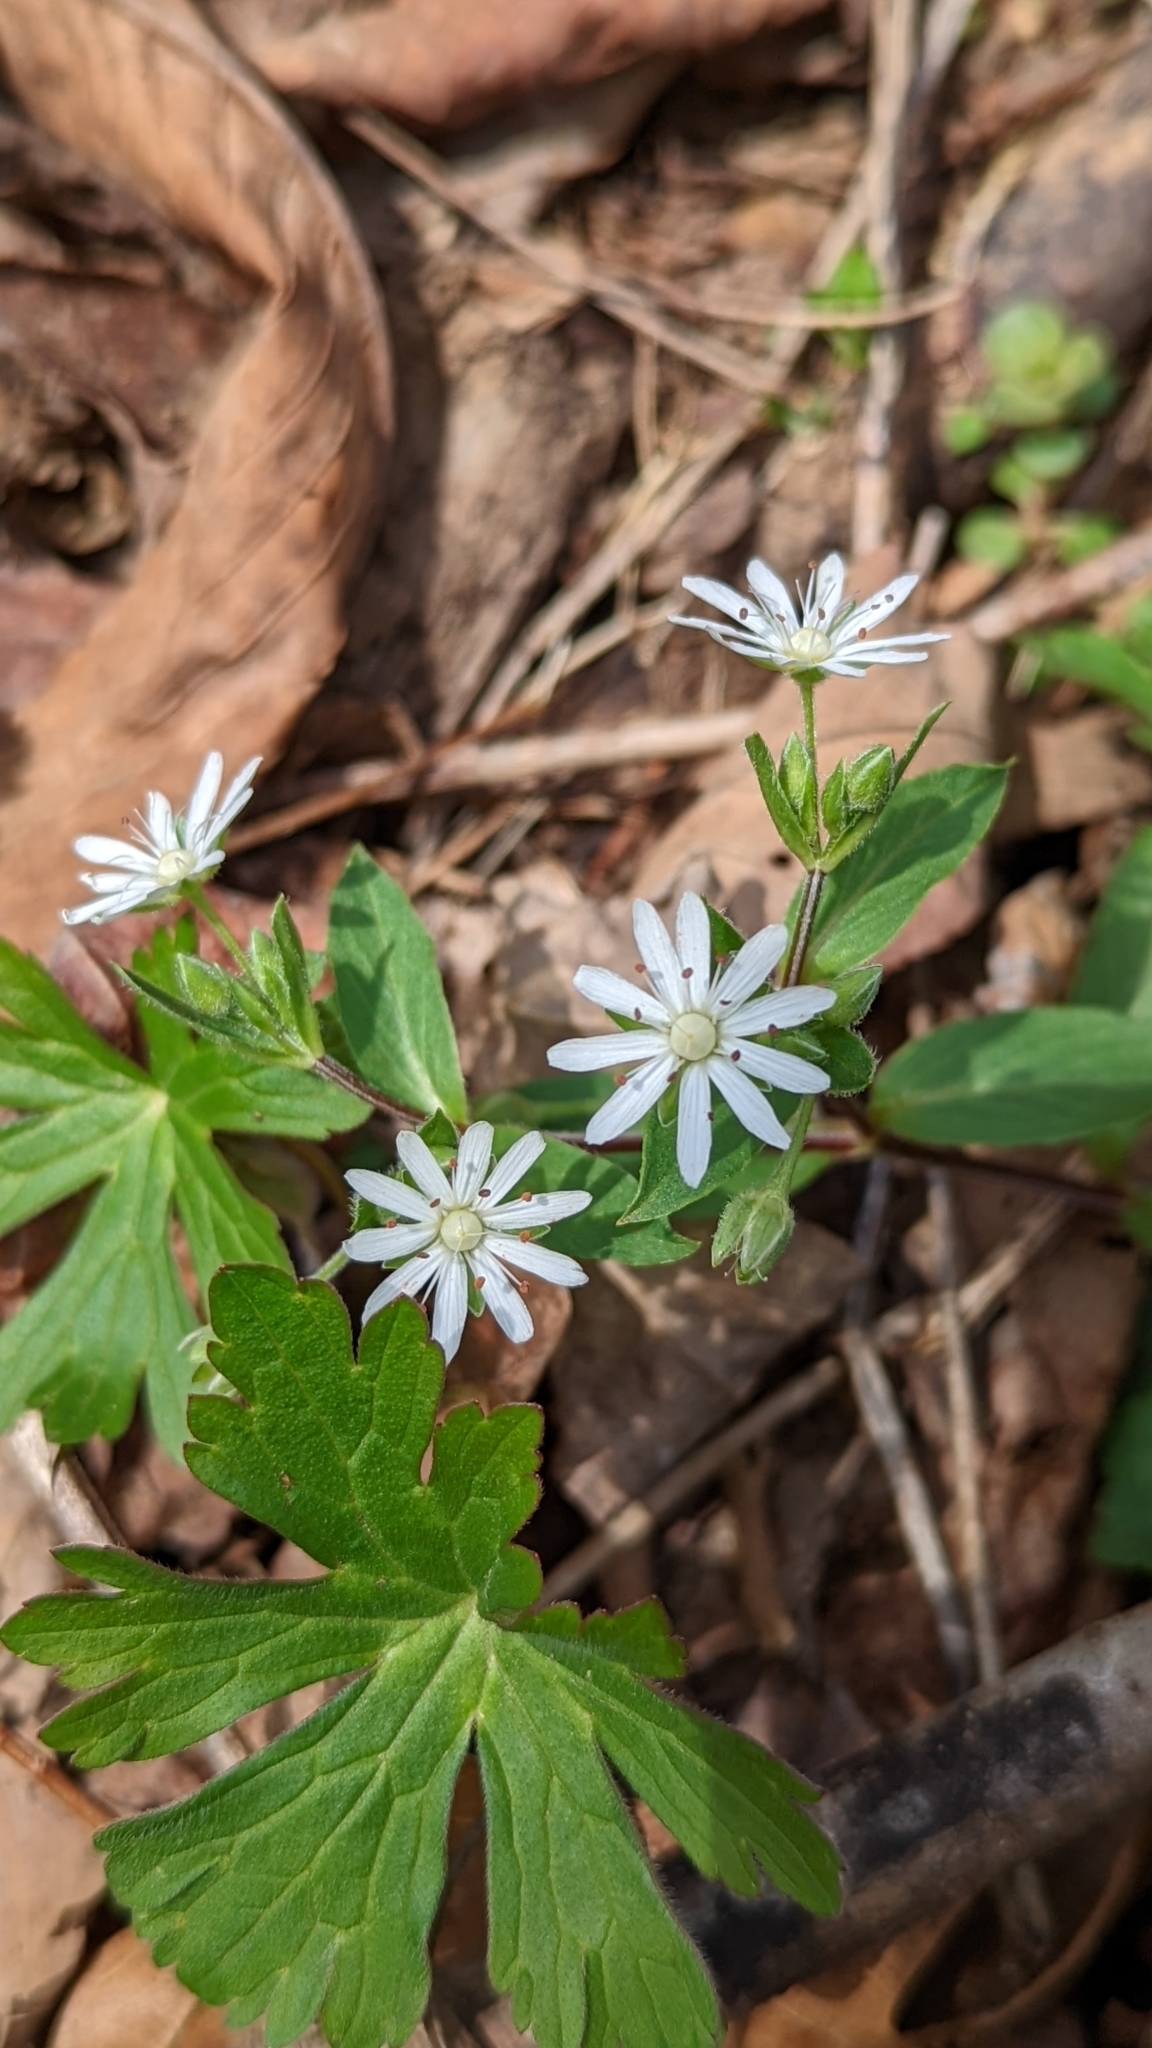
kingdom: Plantae
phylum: Tracheophyta
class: Magnoliopsida
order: Caryophyllales
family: Caryophyllaceae
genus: Stellaria
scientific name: Stellaria pubera
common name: Star chickweed
